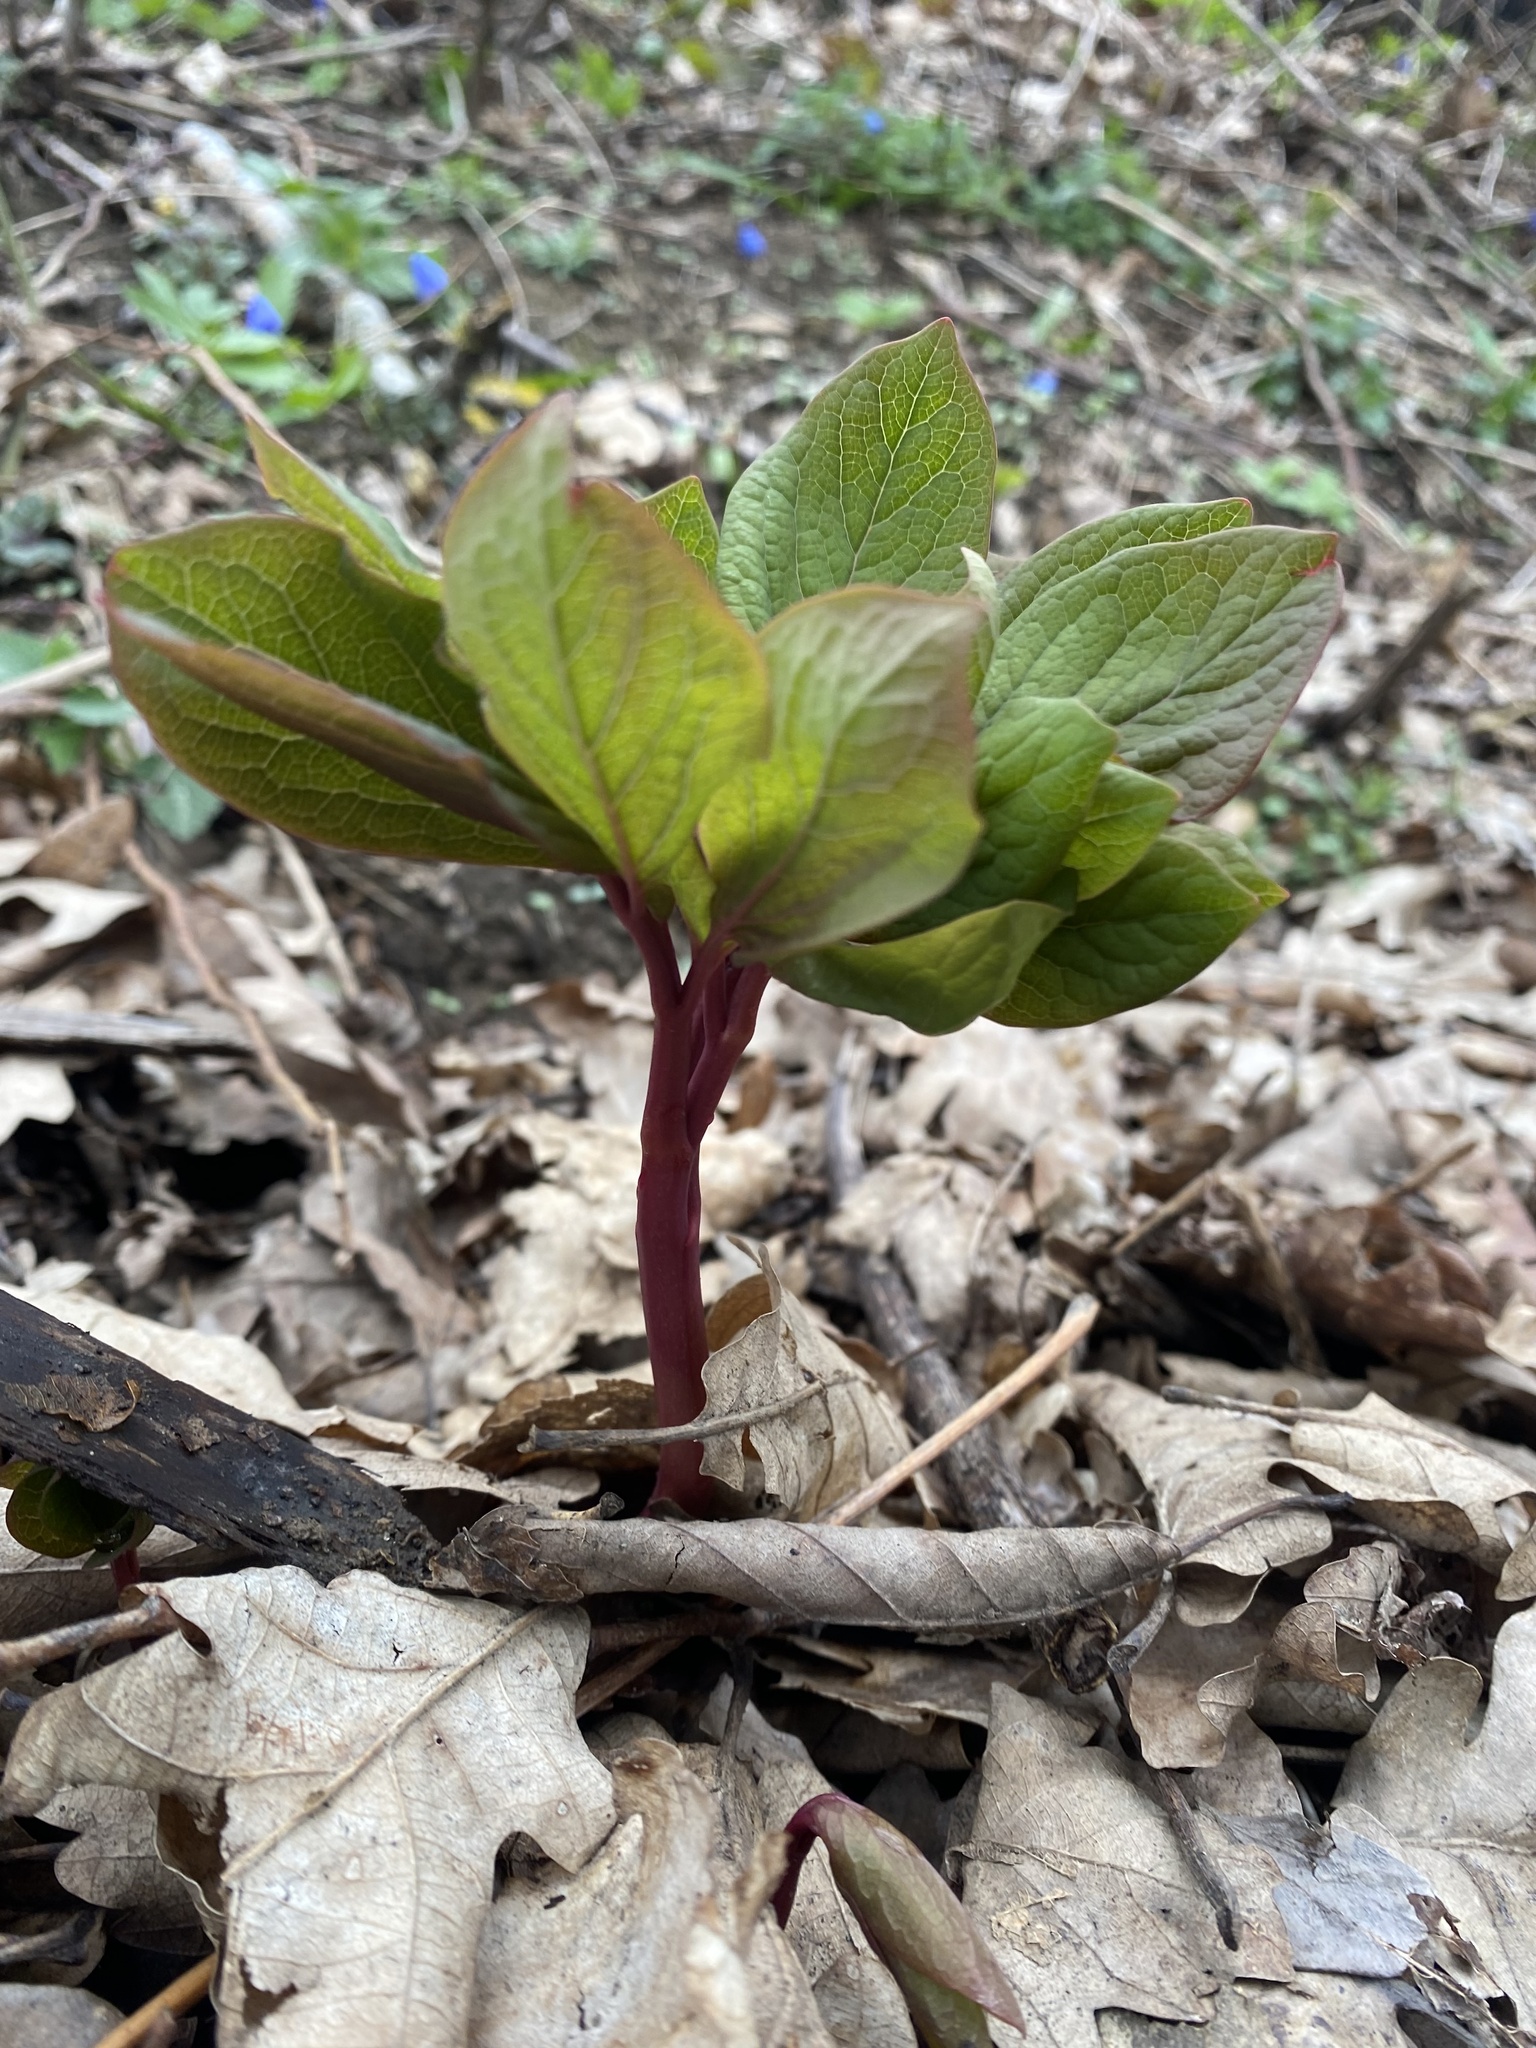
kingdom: Plantae
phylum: Tracheophyta
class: Magnoliopsida
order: Saxifragales
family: Paeoniaceae
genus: Paeonia
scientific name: Paeonia caucasica
